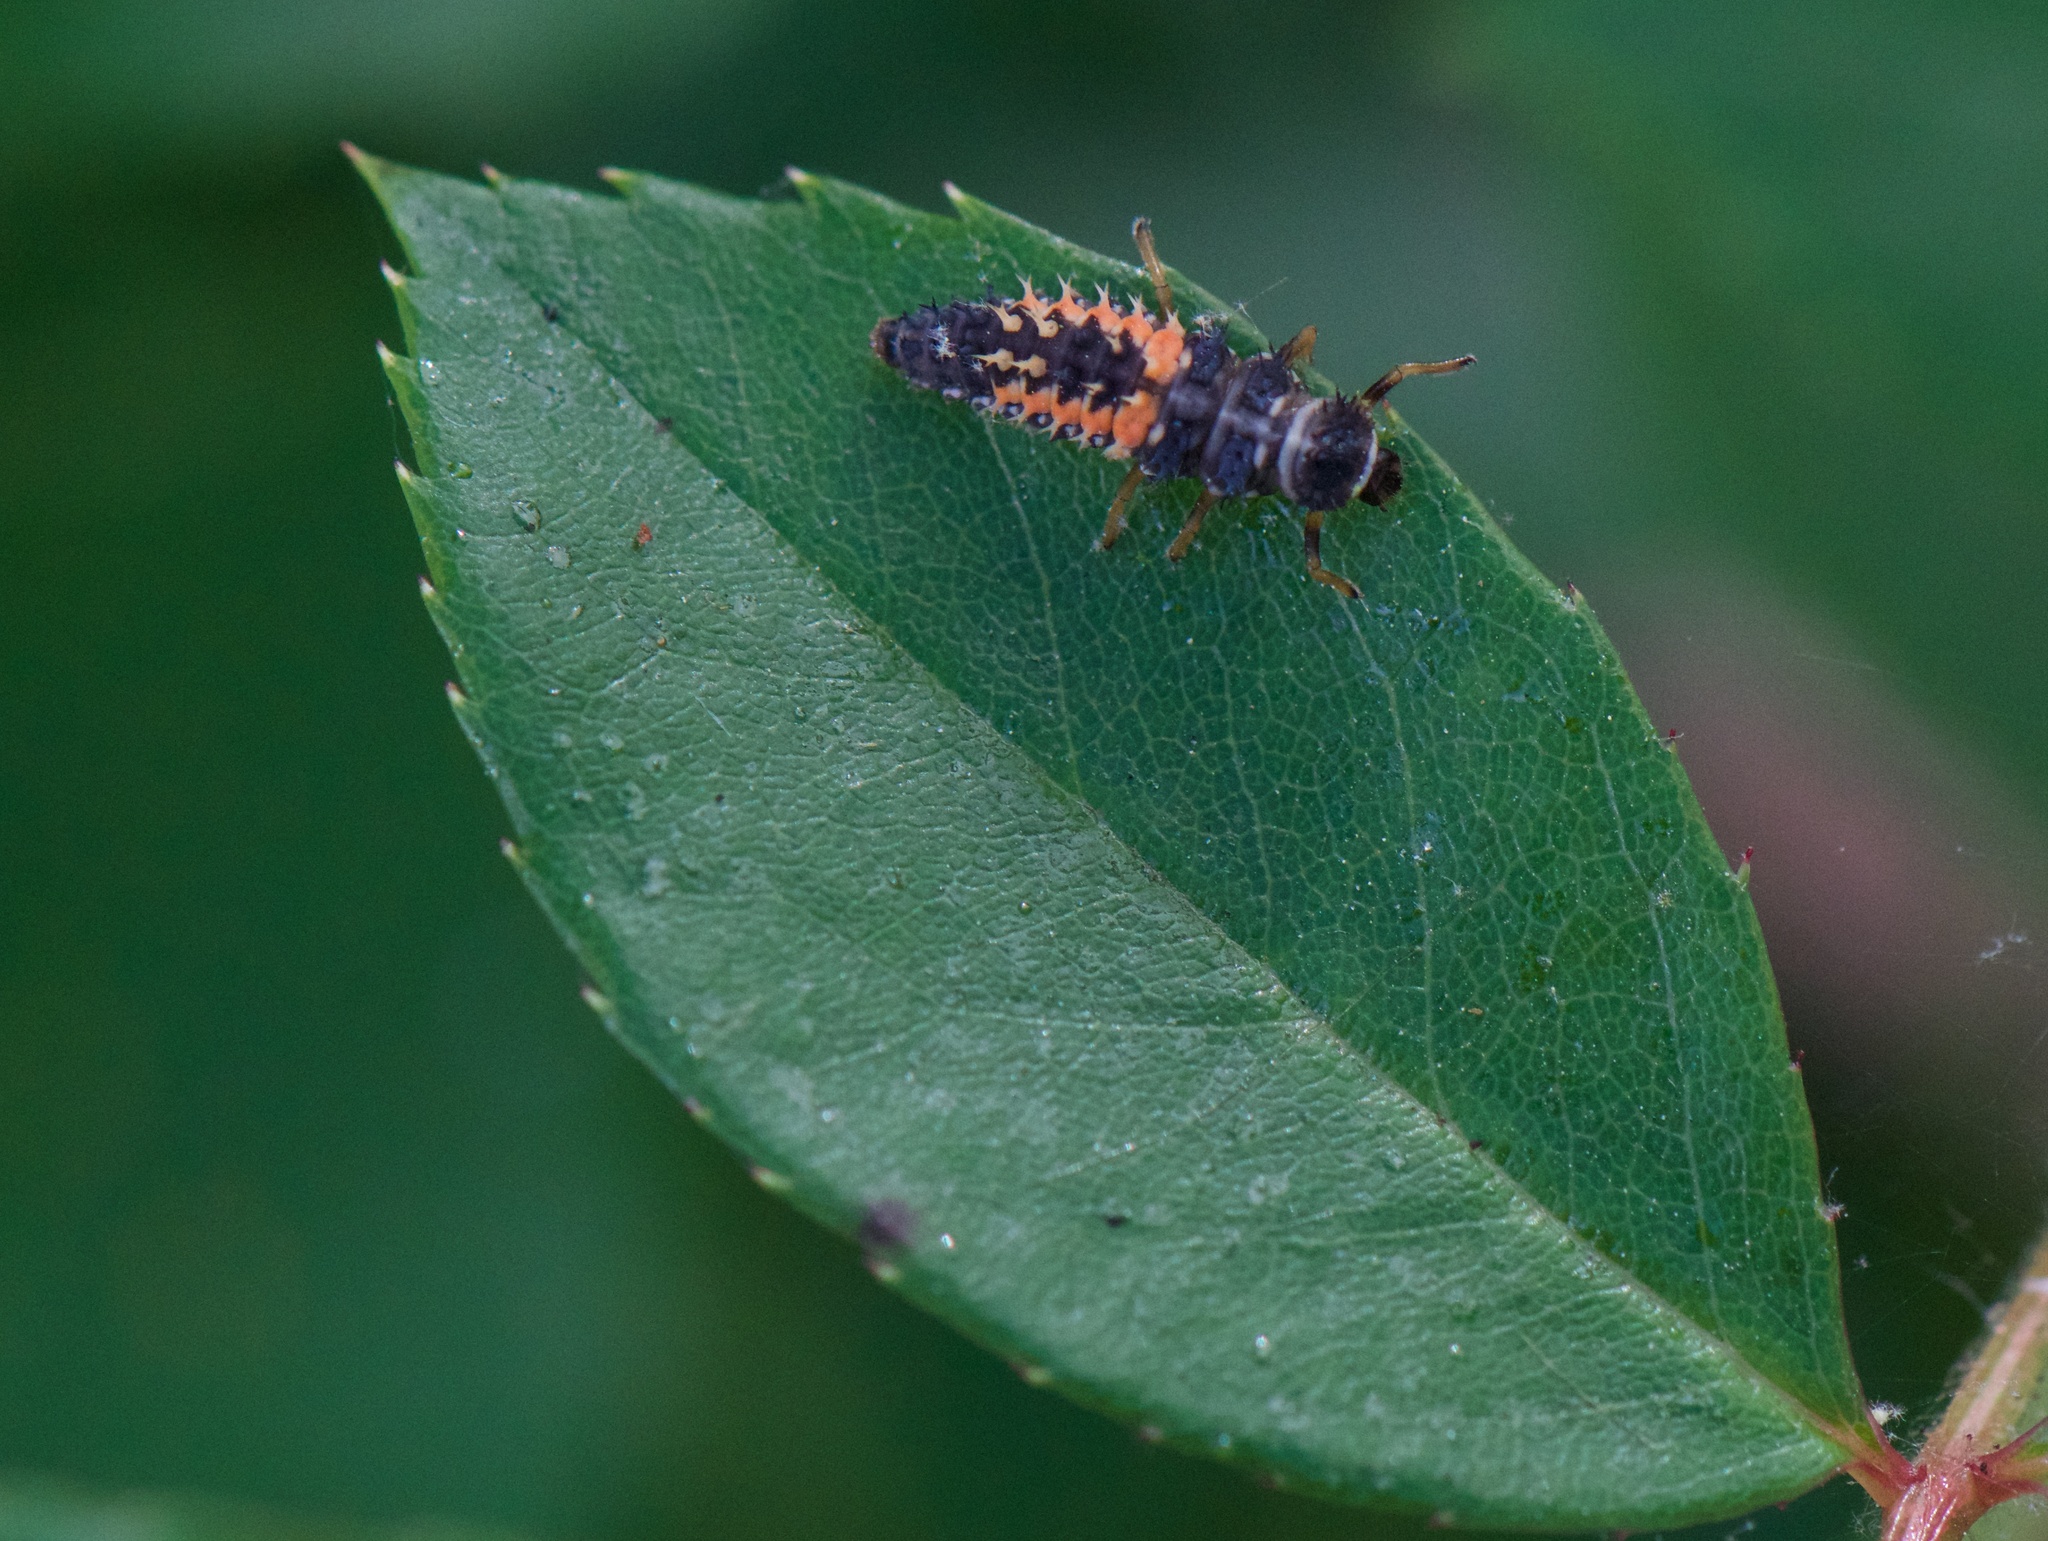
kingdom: Animalia
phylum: Arthropoda
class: Insecta
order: Coleoptera
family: Coccinellidae
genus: Harmonia
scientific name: Harmonia axyridis
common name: Harlequin ladybird
